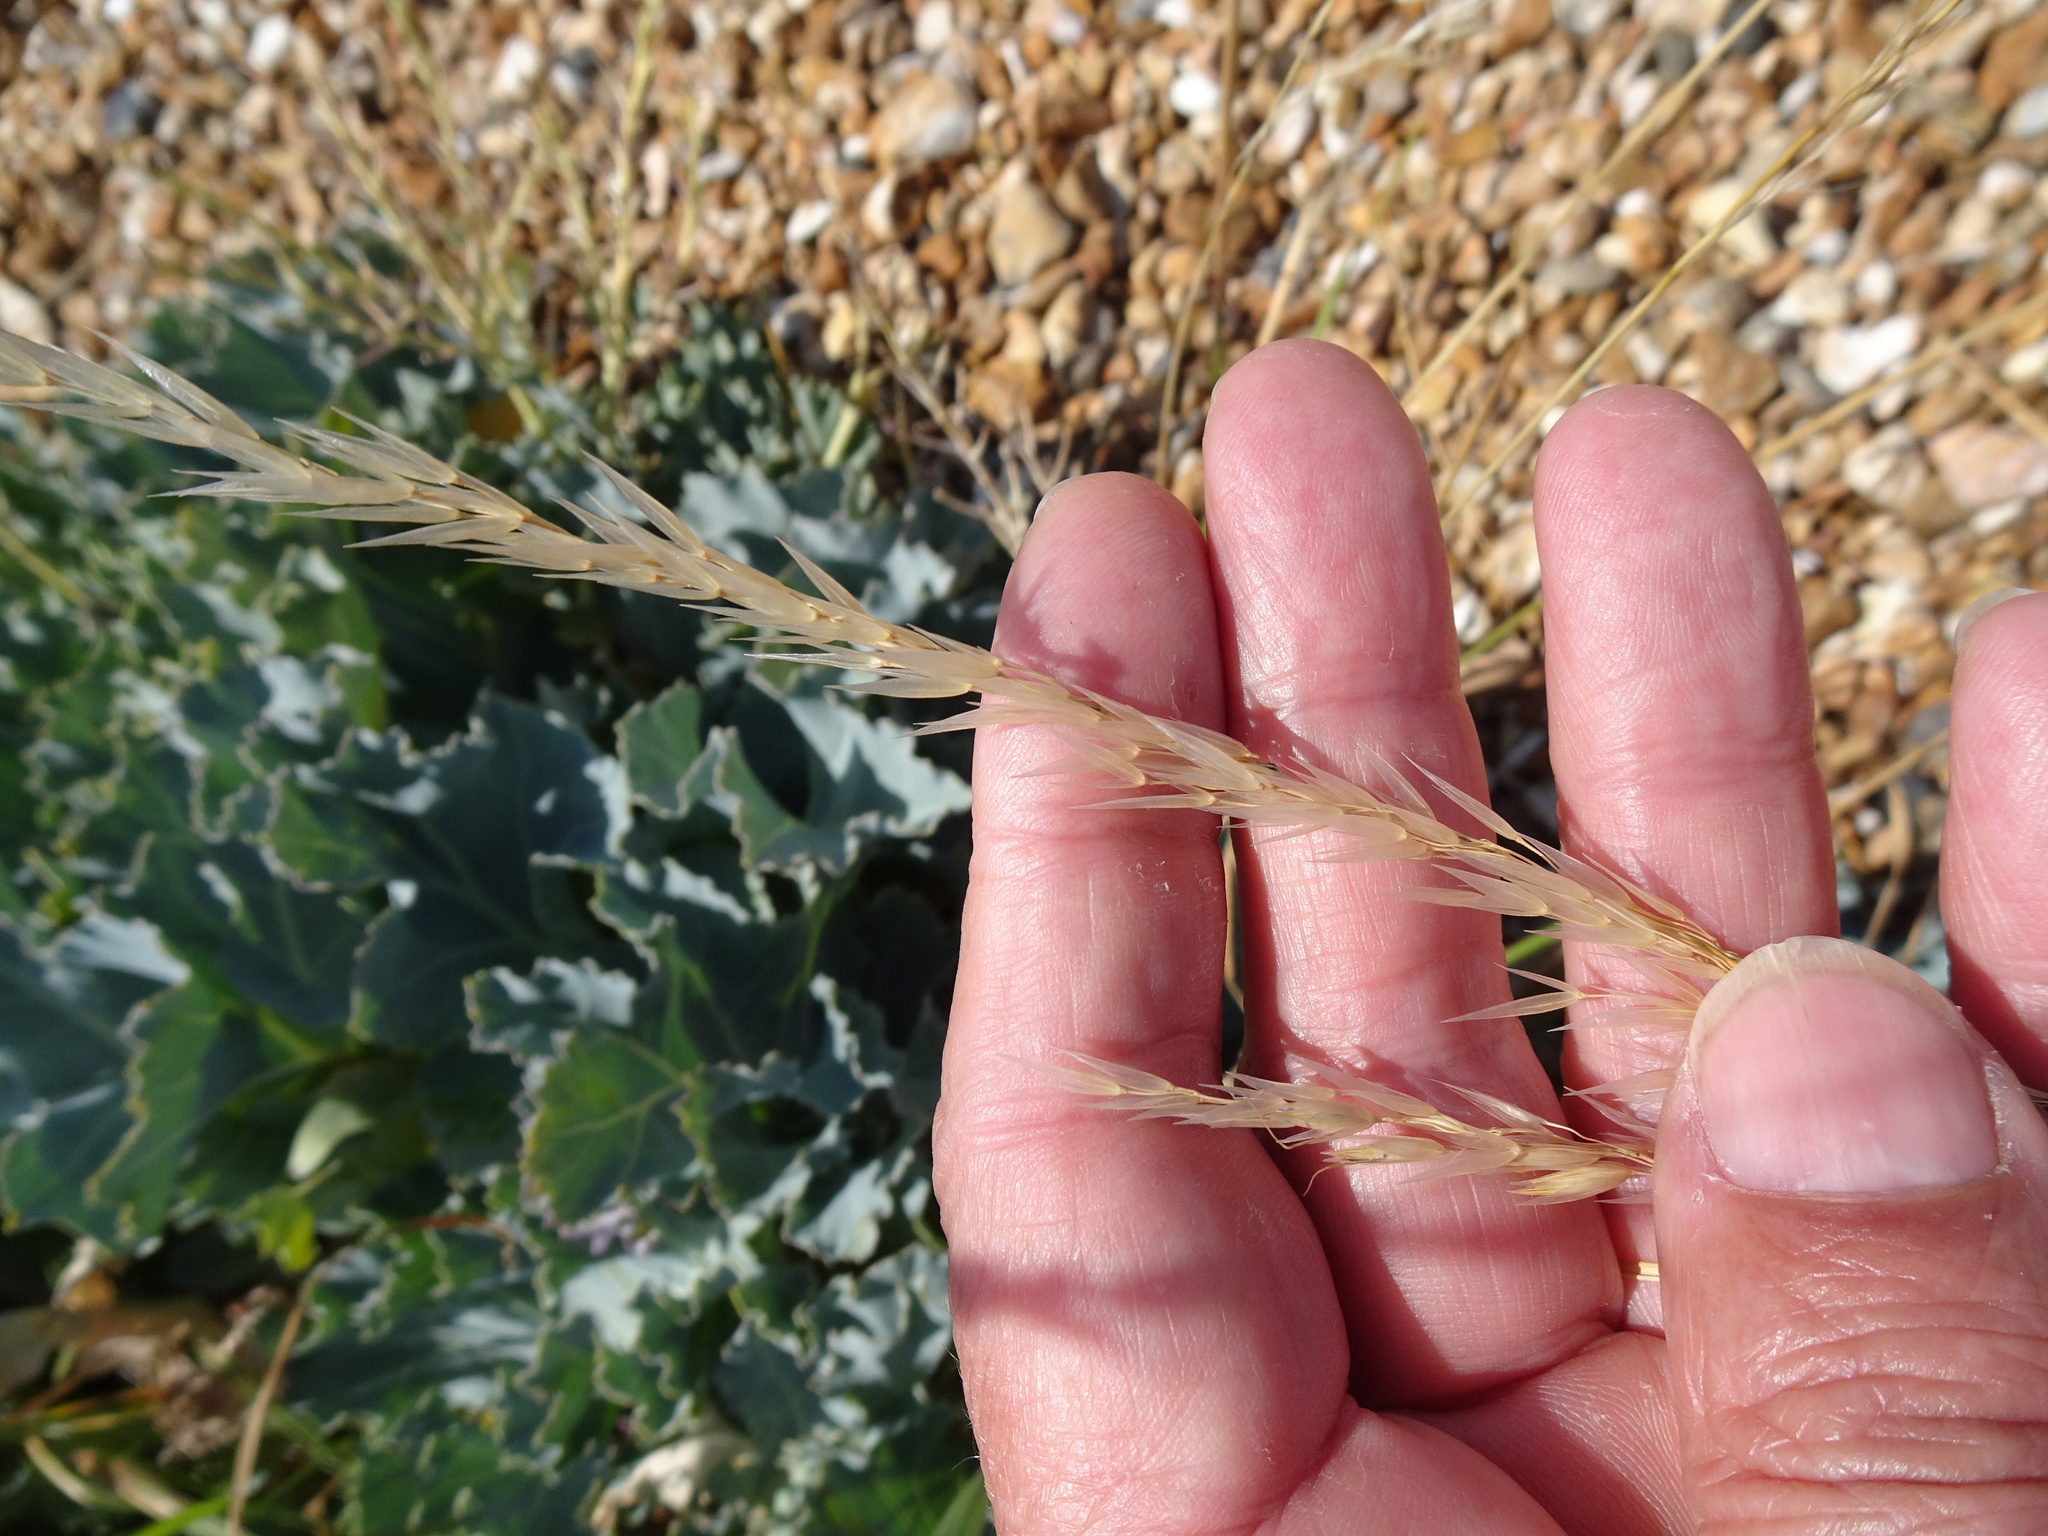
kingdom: Plantae
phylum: Tracheophyta
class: Liliopsida
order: Poales
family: Poaceae
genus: Arrhenatherum
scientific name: Arrhenatherum elatius
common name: Tall oatgrass
